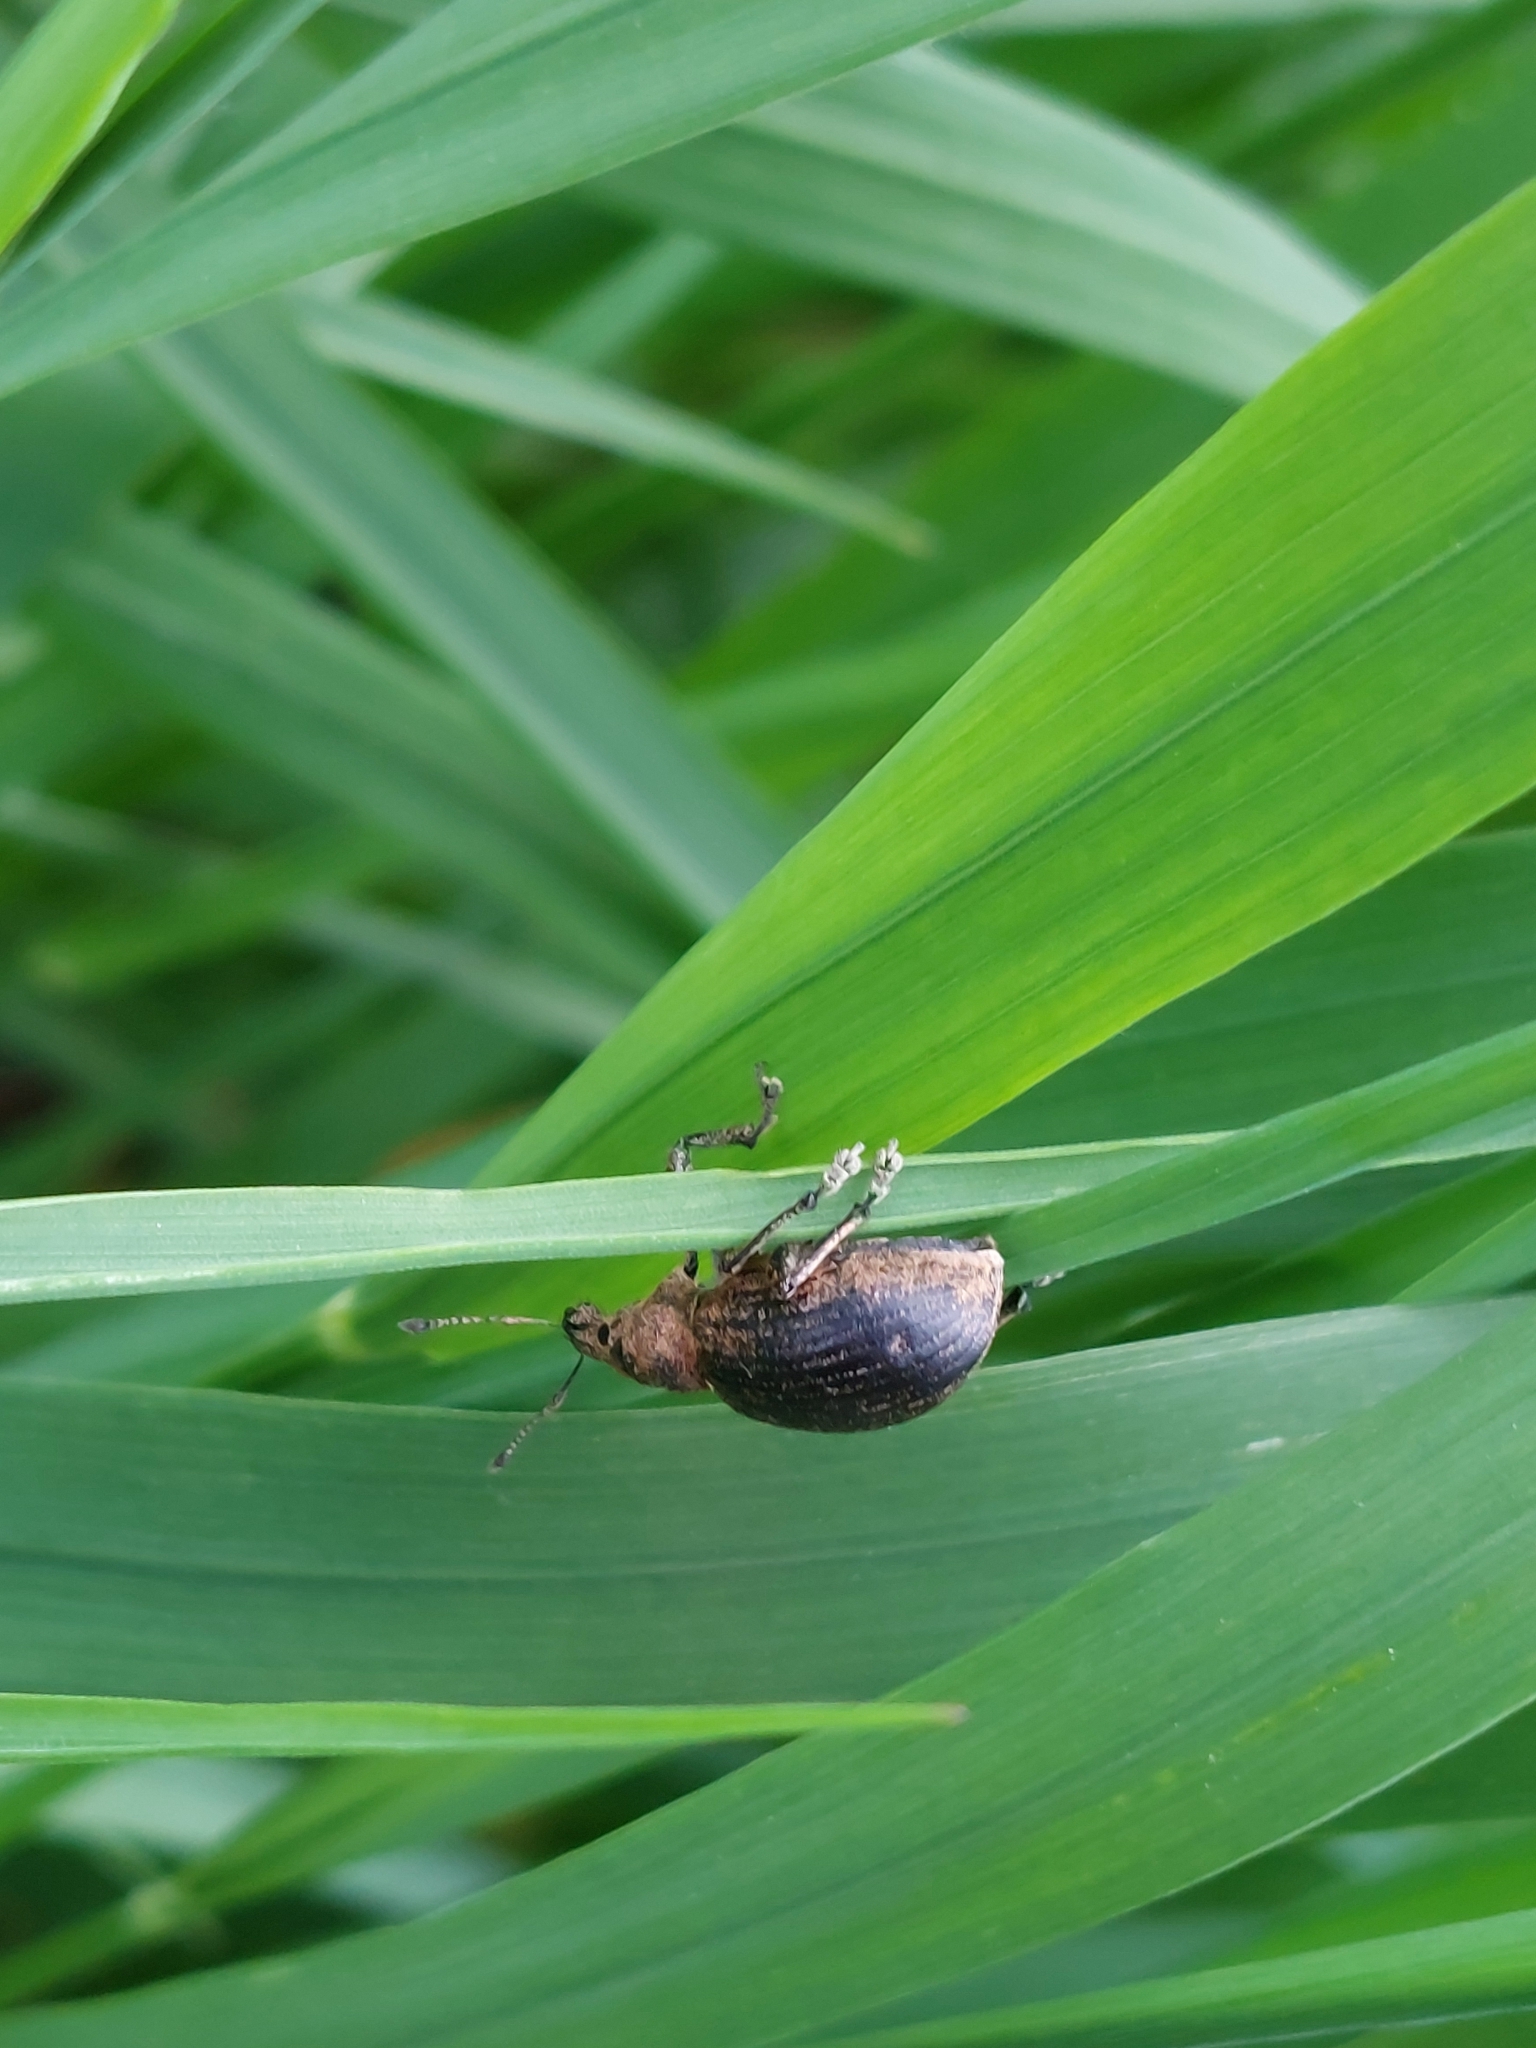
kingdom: Animalia
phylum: Arthropoda
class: Insecta
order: Coleoptera
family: Curculionidae
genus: Liophloeus
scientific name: Liophloeus tessulatus
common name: Weevil
